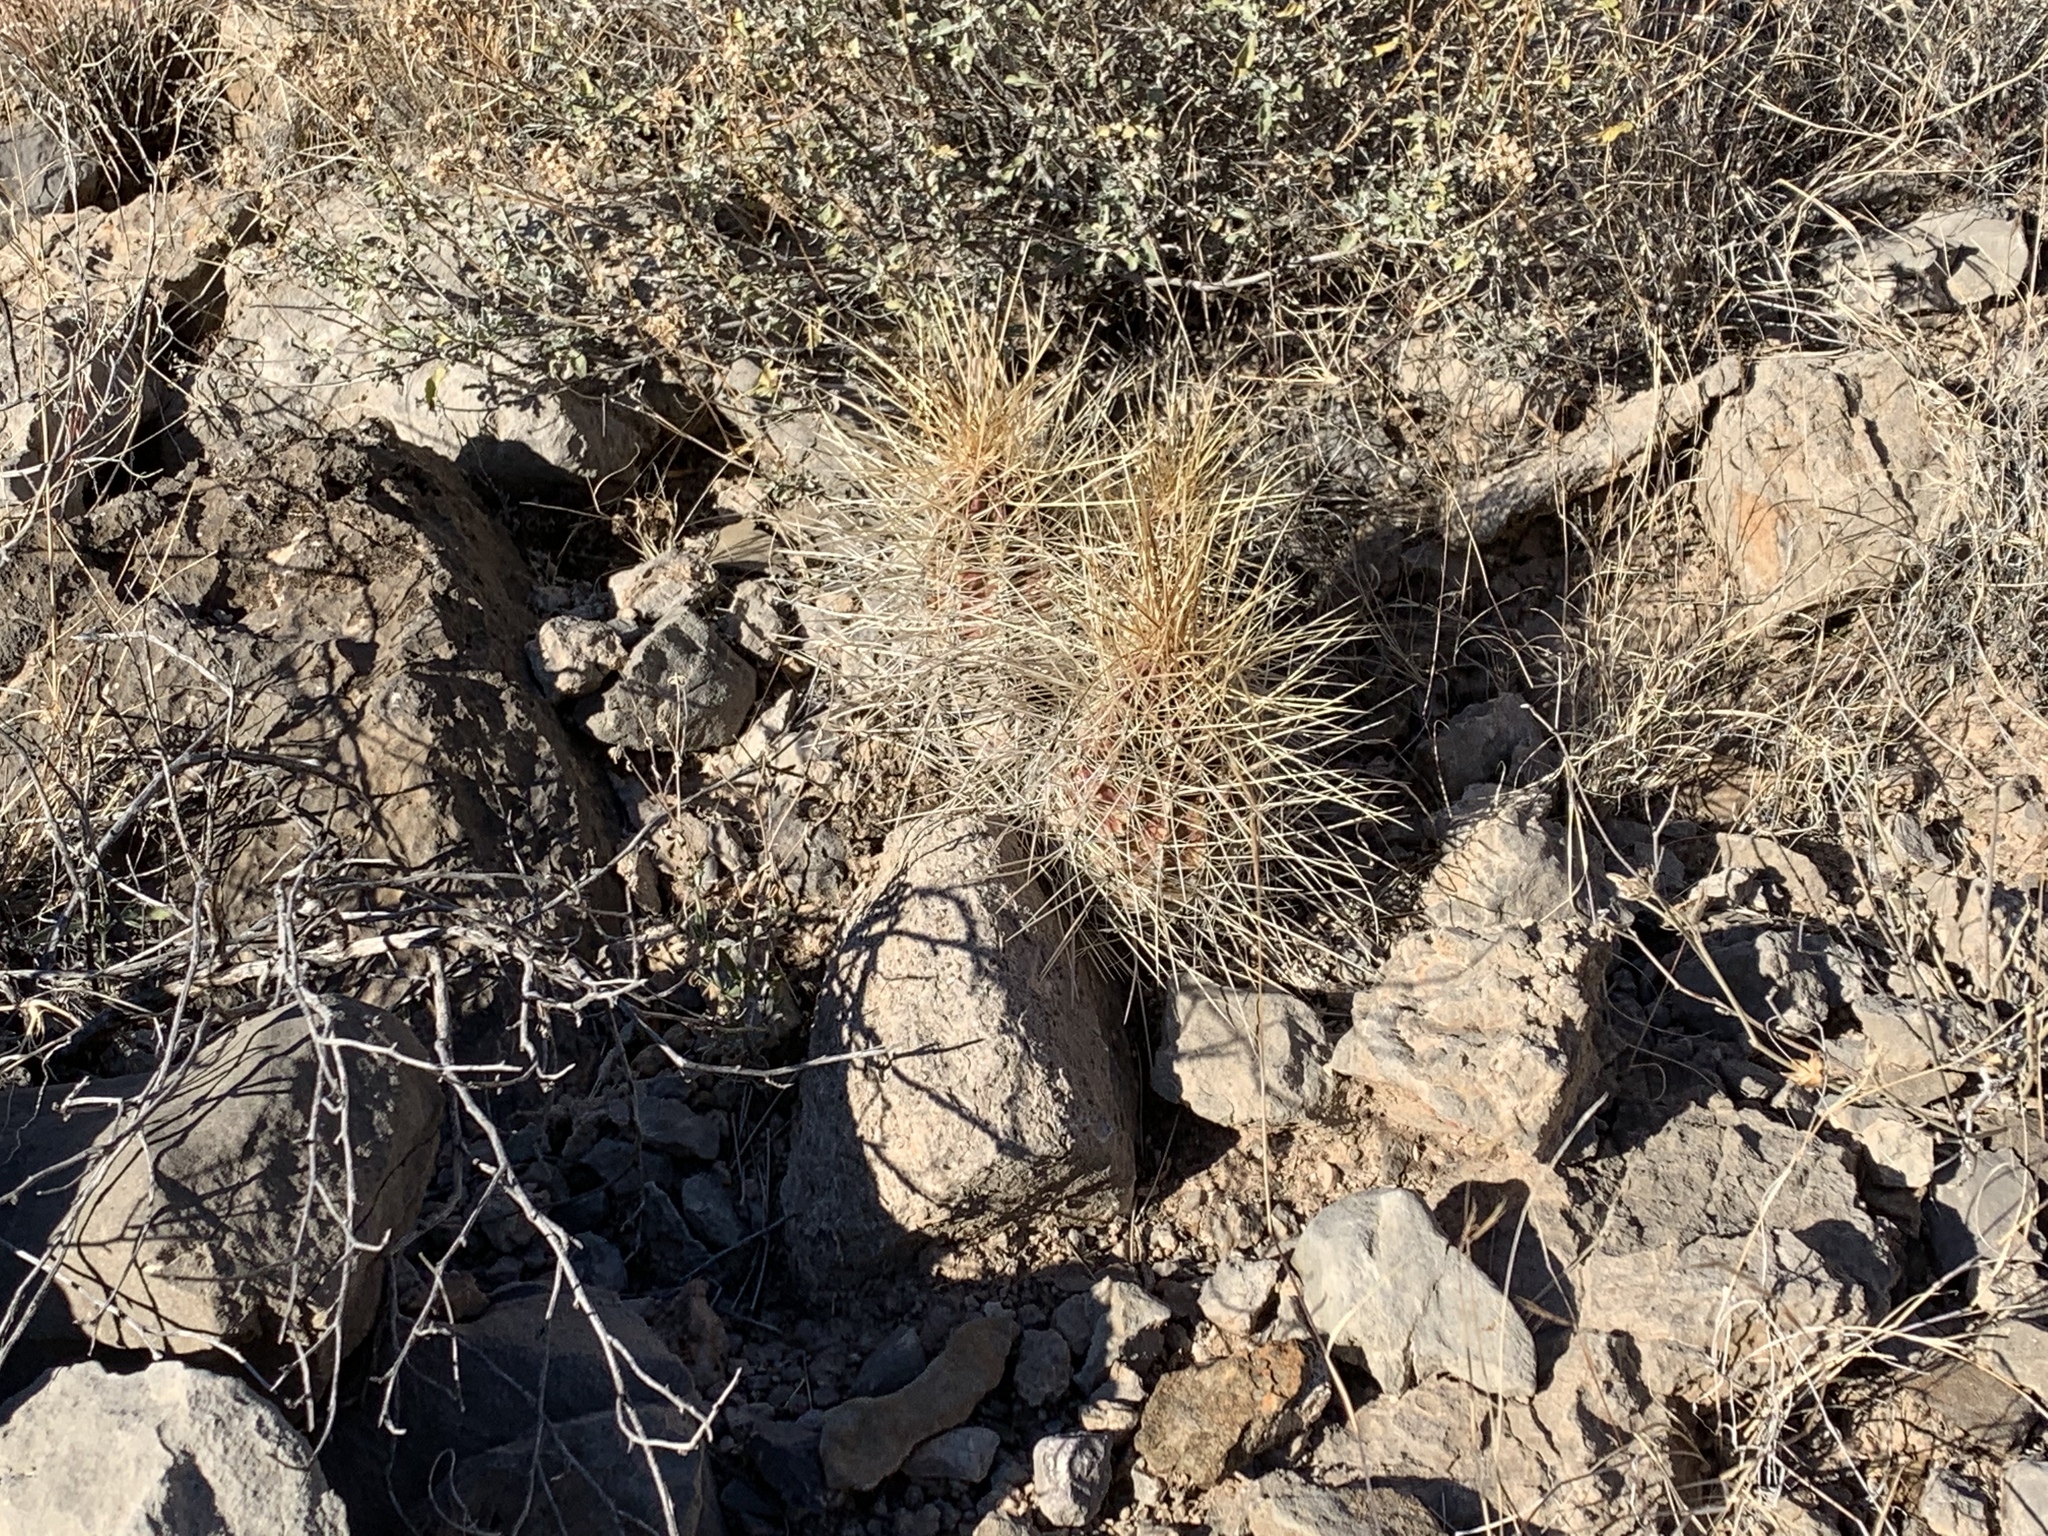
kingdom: Plantae
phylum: Tracheophyta
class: Magnoliopsida
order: Caryophyllales
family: Cactaceae
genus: Echinocereus
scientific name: Echinocereus stramineus
